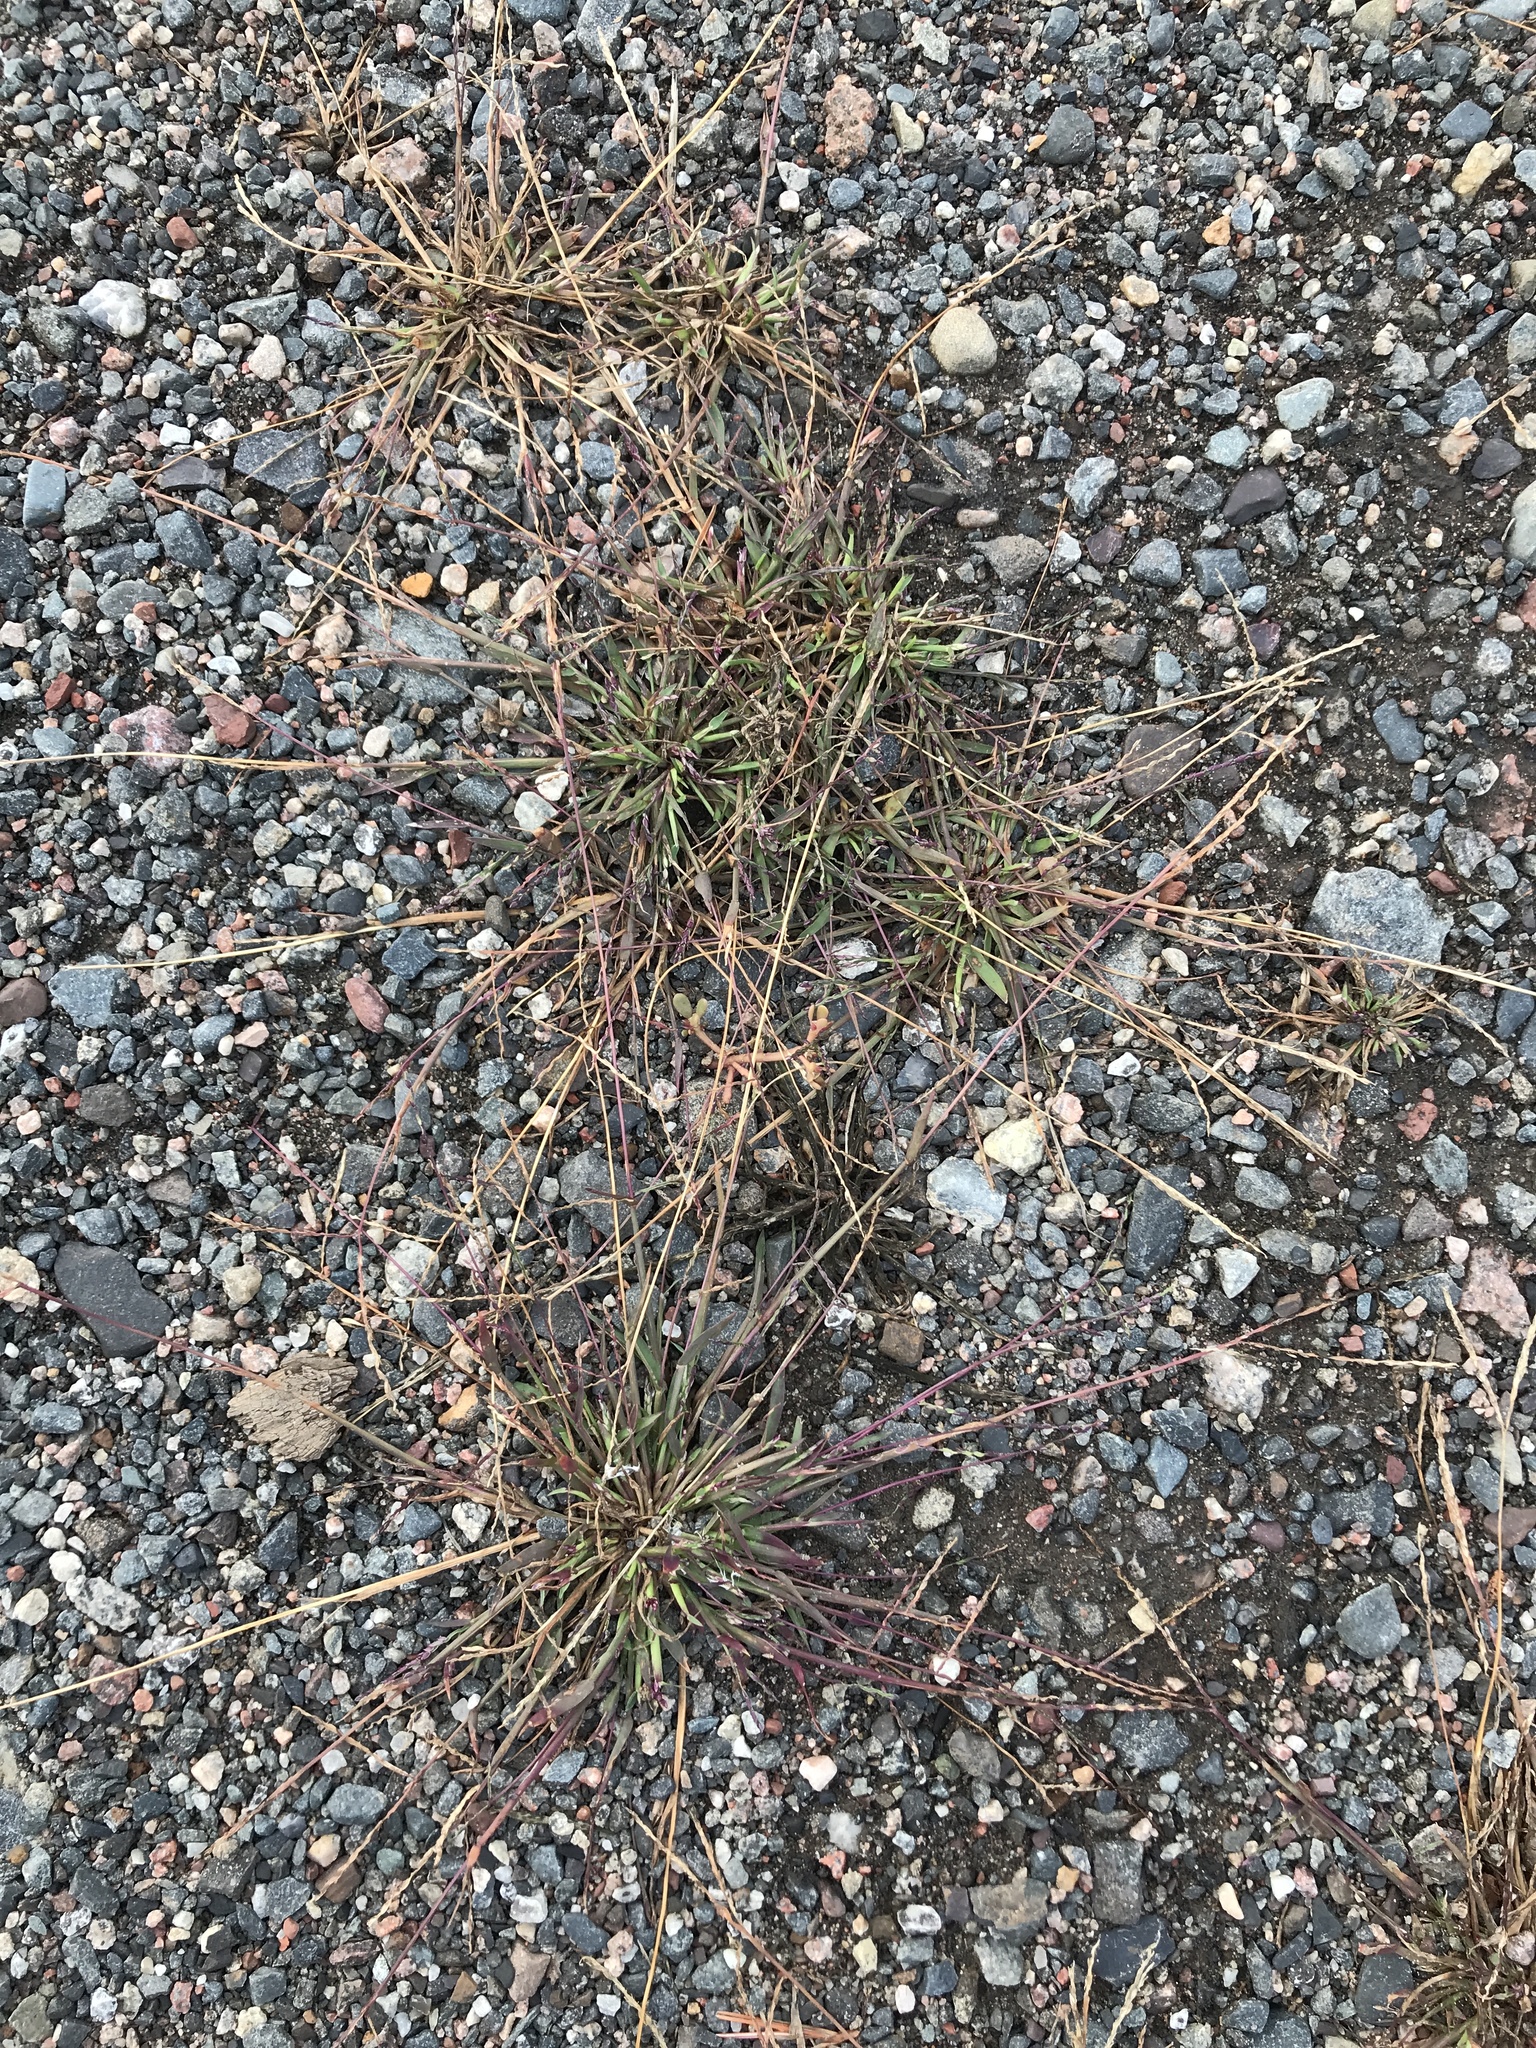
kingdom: Plantae
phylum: Tracheophyta
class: Liliopsida
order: Poales
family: Poaceae
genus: Digitaria
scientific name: Digitaria ischaemum
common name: Smooth crabgrass
